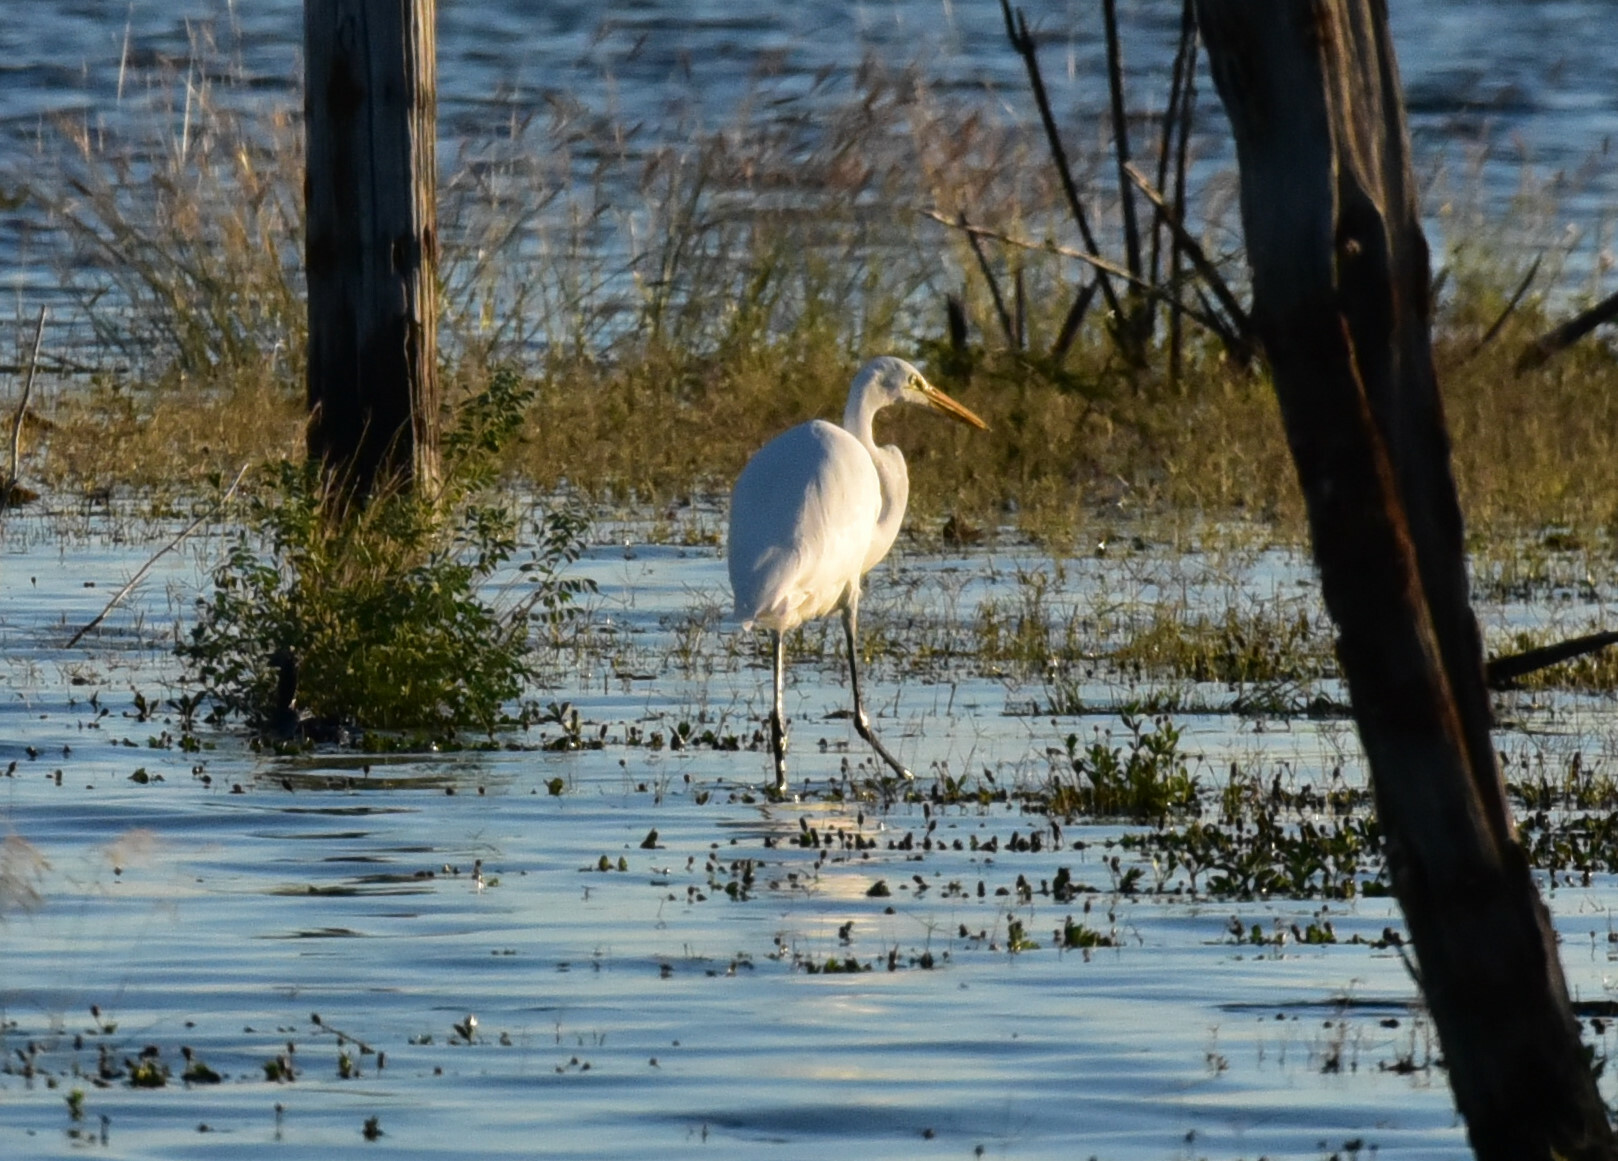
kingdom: Animalia
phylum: Chordata
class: Aves
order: Pelecaniformes
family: Ardeidae
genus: Ardea
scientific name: Ardea alba
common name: Great egret
